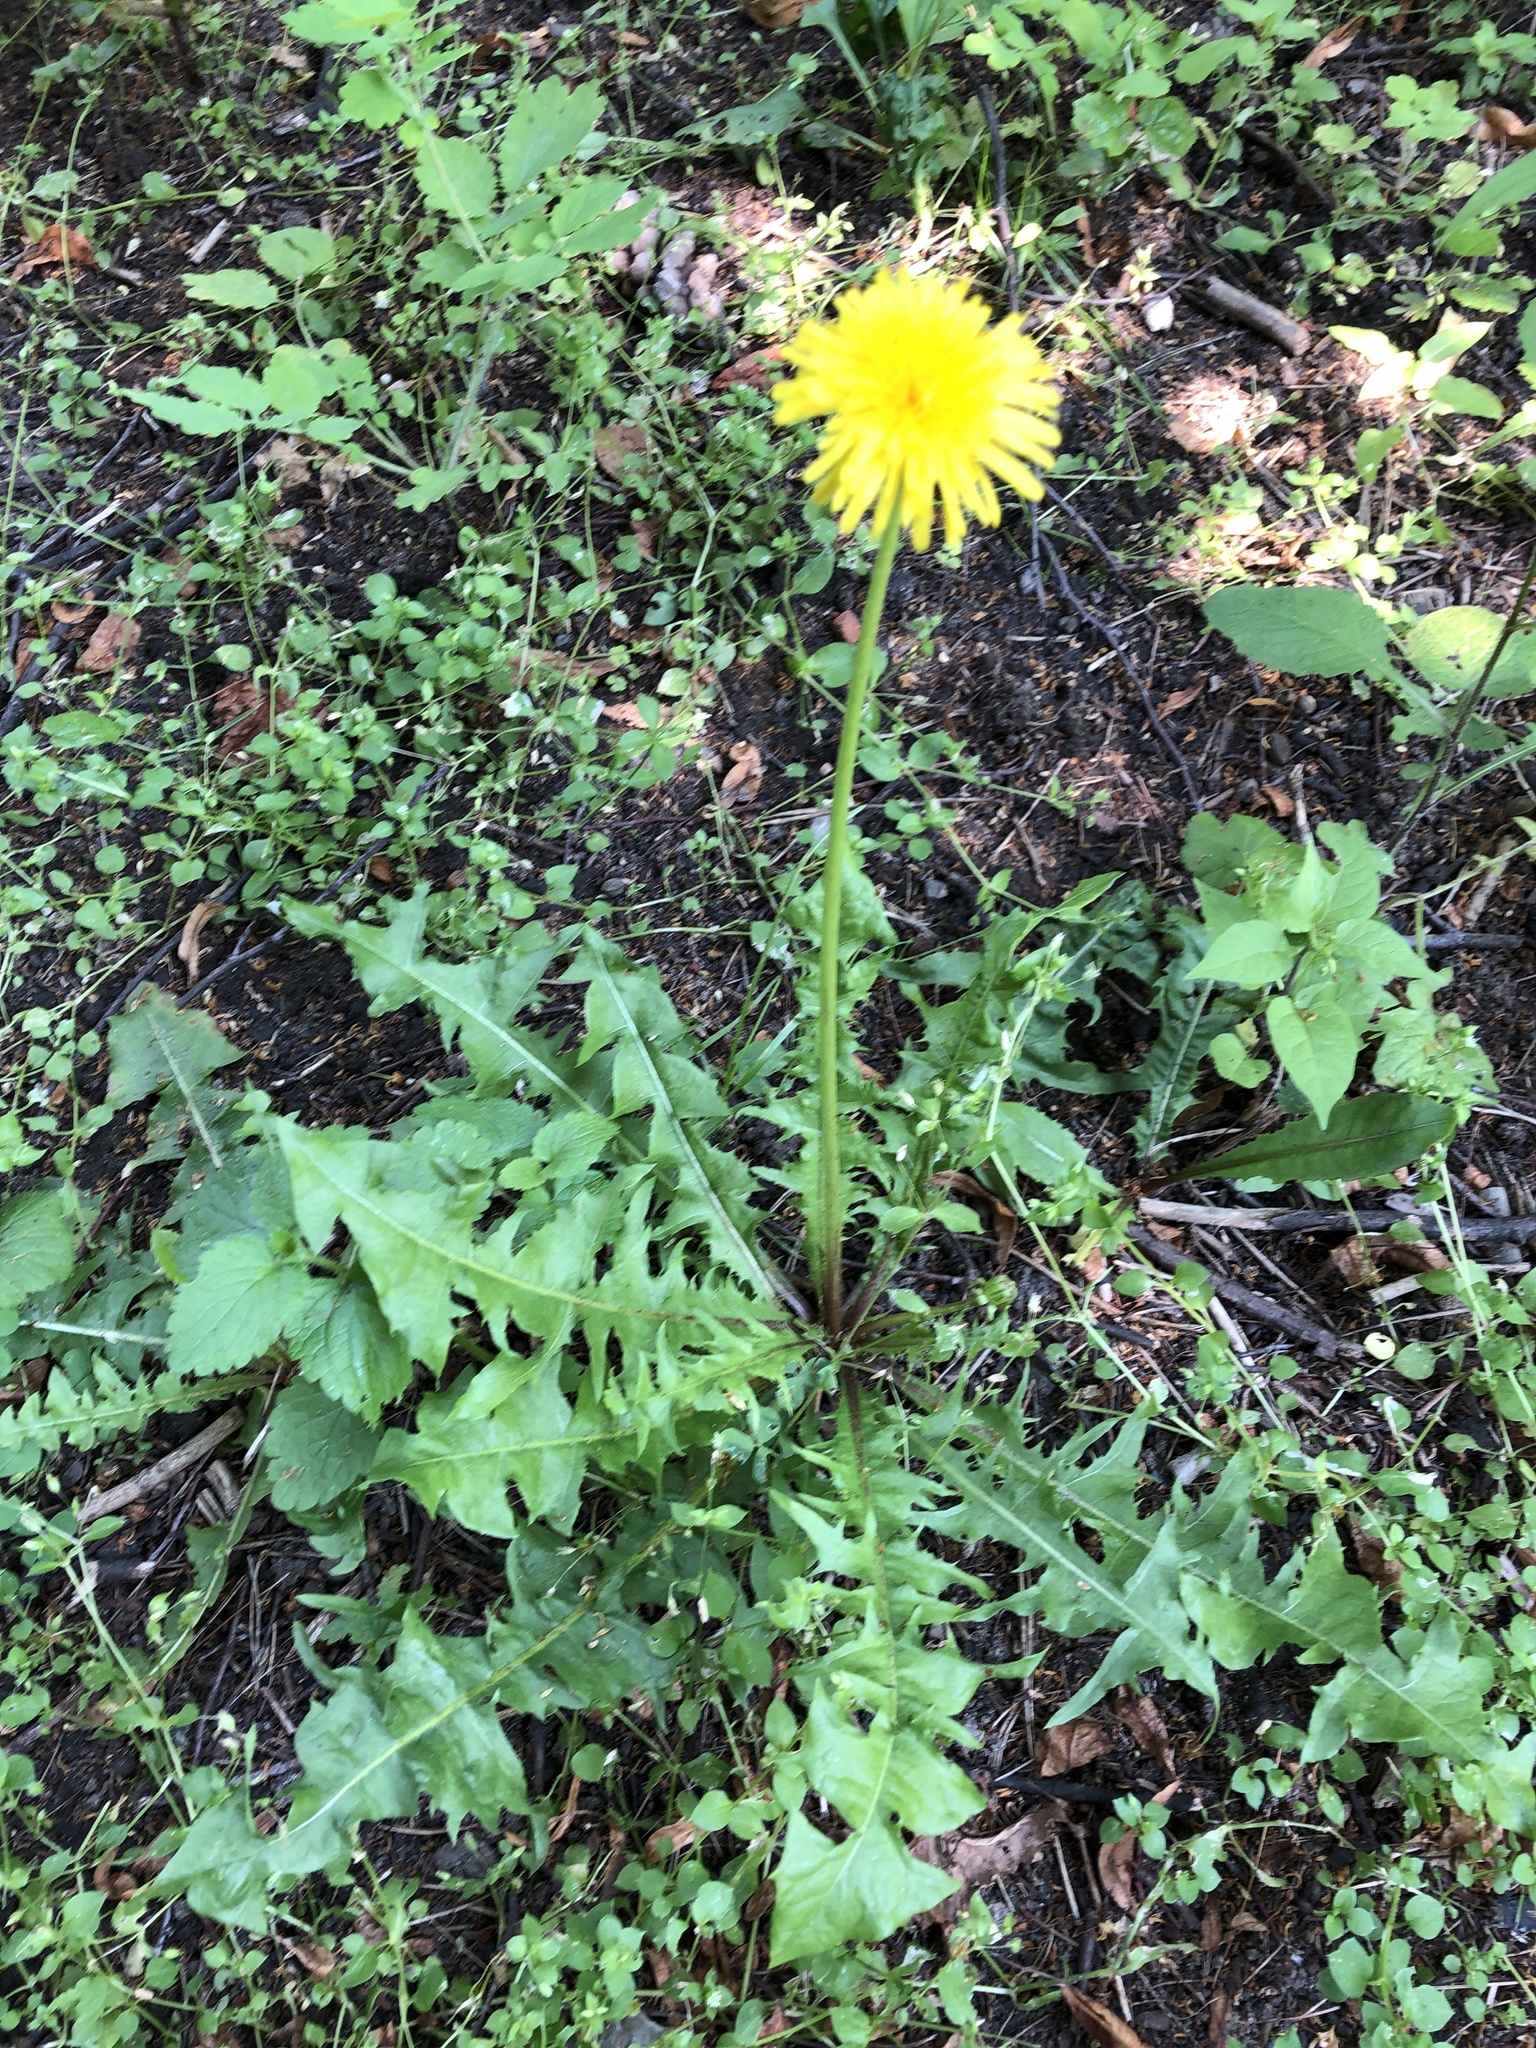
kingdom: Plantae
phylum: Tracheophyta
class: Magnoliopsida
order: Asterales
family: Asteraceae
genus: Taraxacum
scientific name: Taraxacum officinale
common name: Common dandelion
